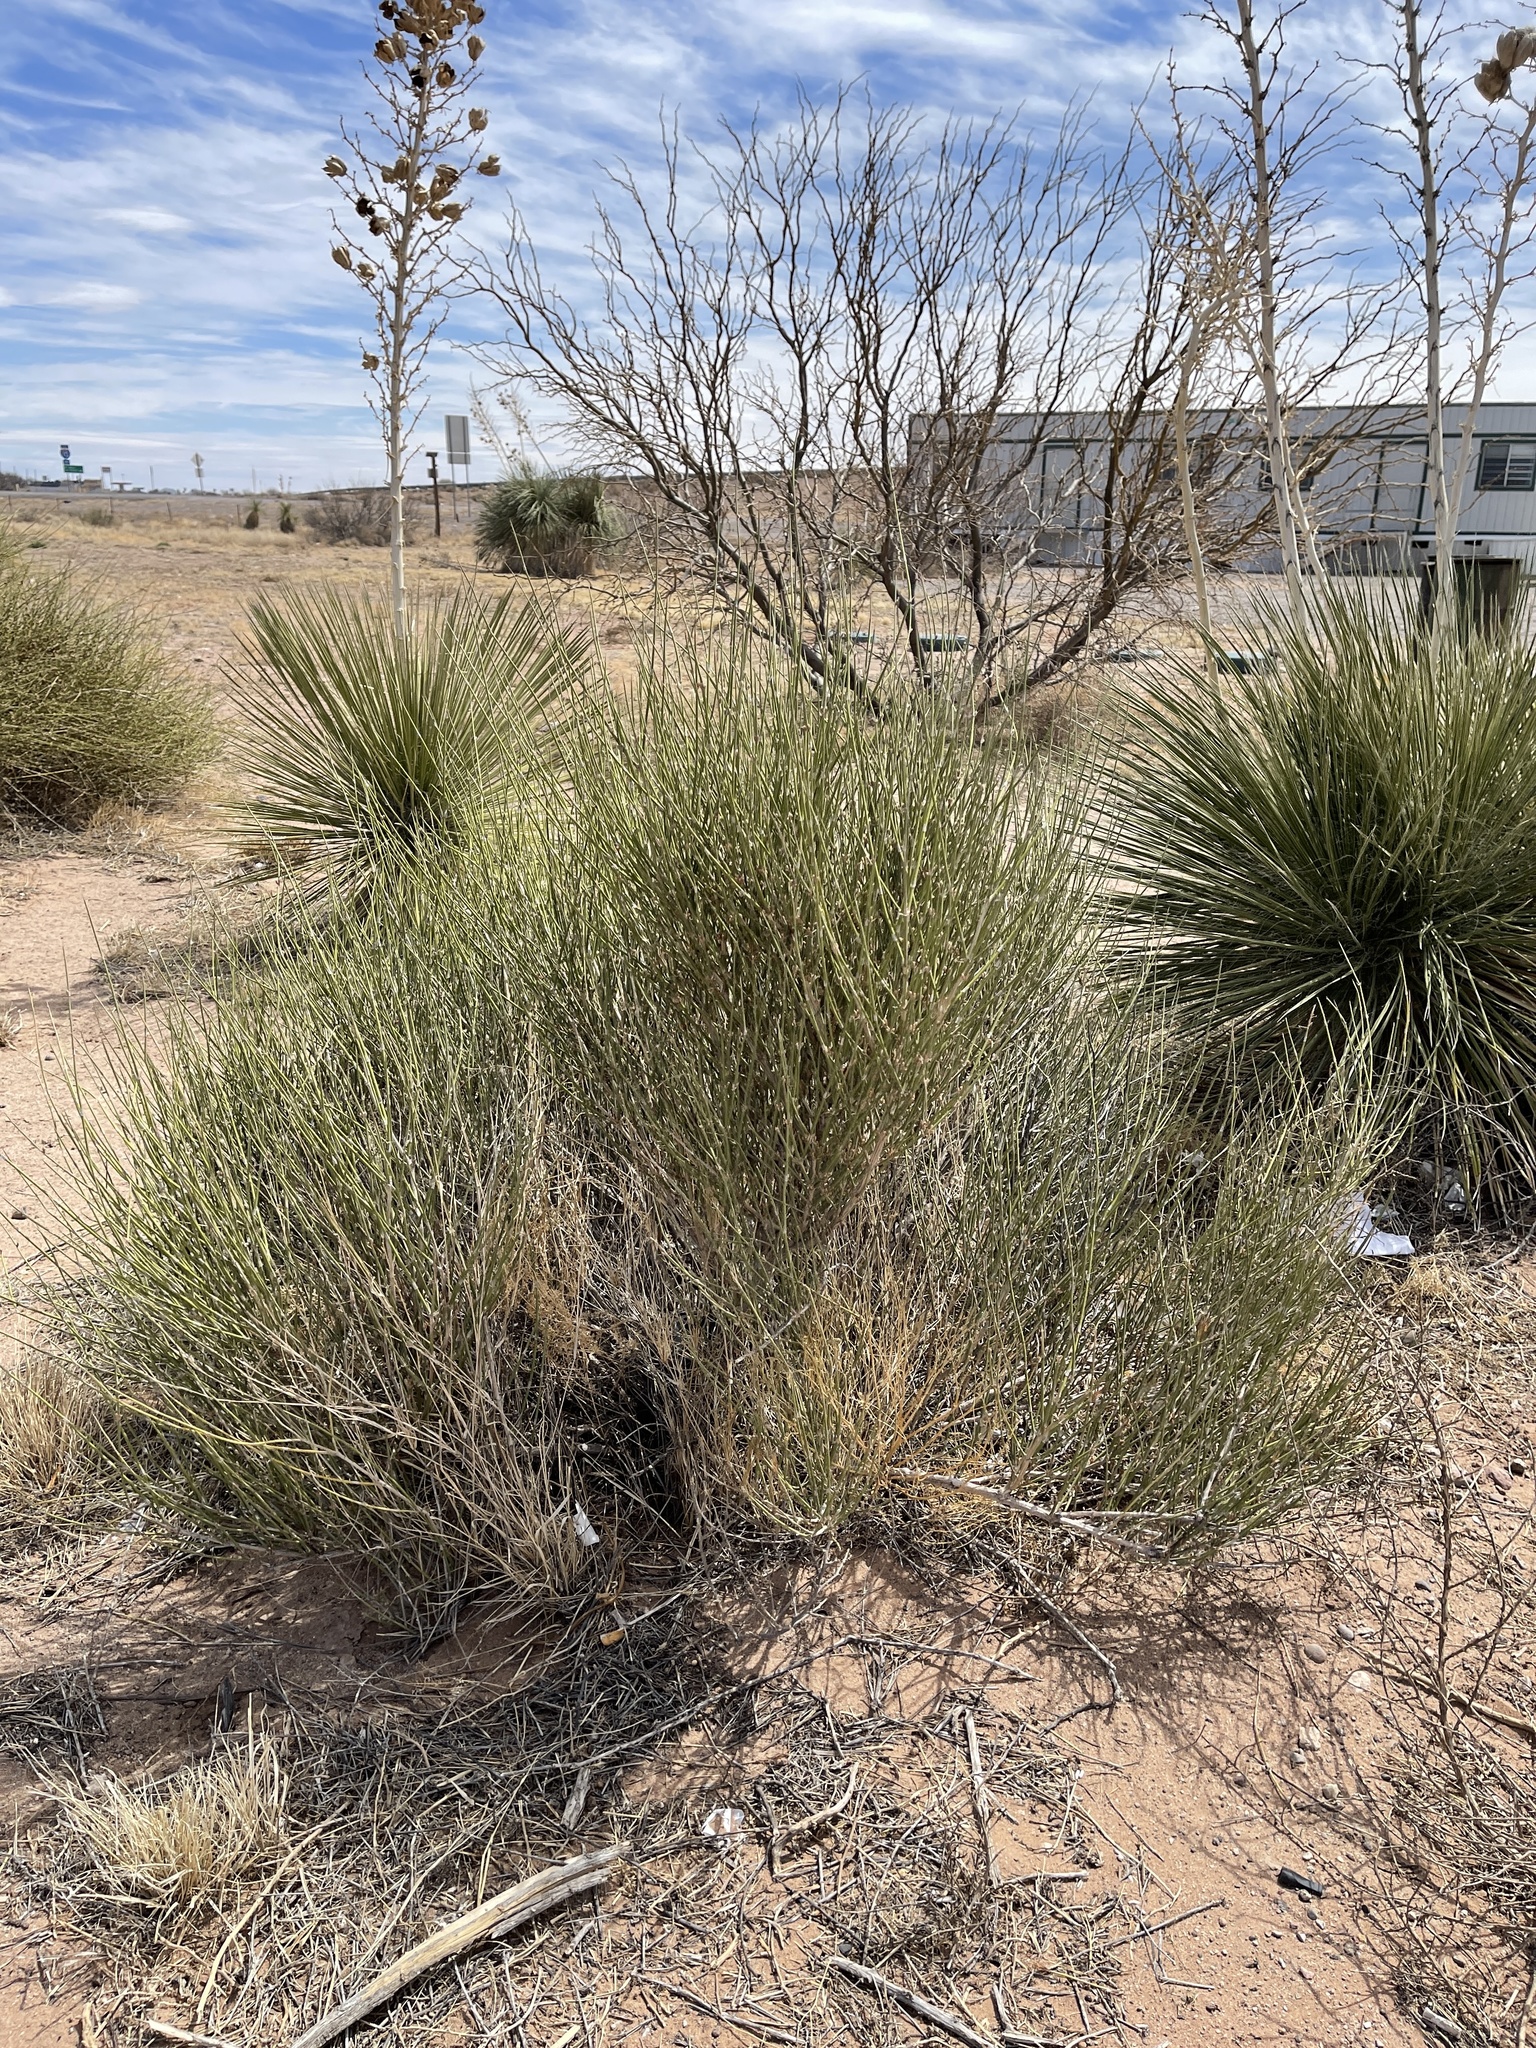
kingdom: Plantae
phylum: Tracheophyta
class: Gnetopsida
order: Ephedrales
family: Ephedraceae
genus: Ephedra
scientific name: Ephedra trifurca
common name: Mexican-tea
